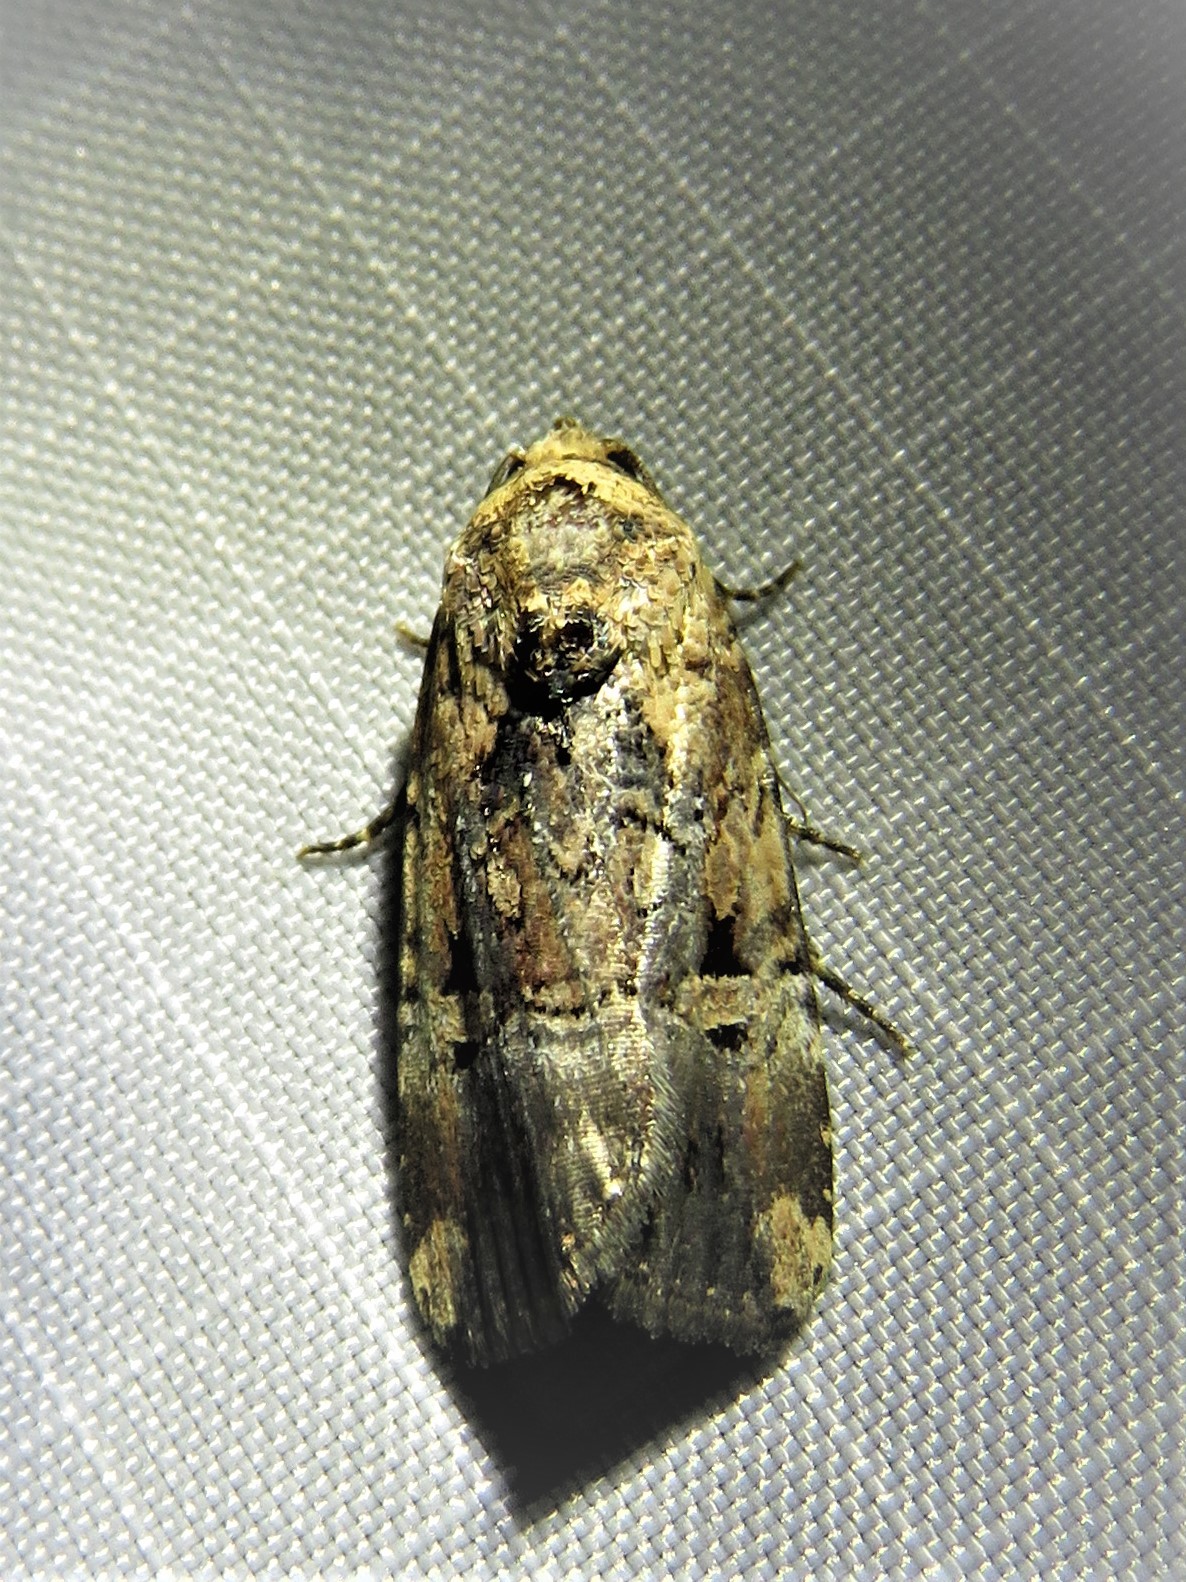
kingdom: Animalia
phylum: Arthropoda
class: Insecta
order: Lepidoptera
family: Noctuidae
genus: Elaphria
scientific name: Elaphria chalcedonia
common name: Chalcedony midget
